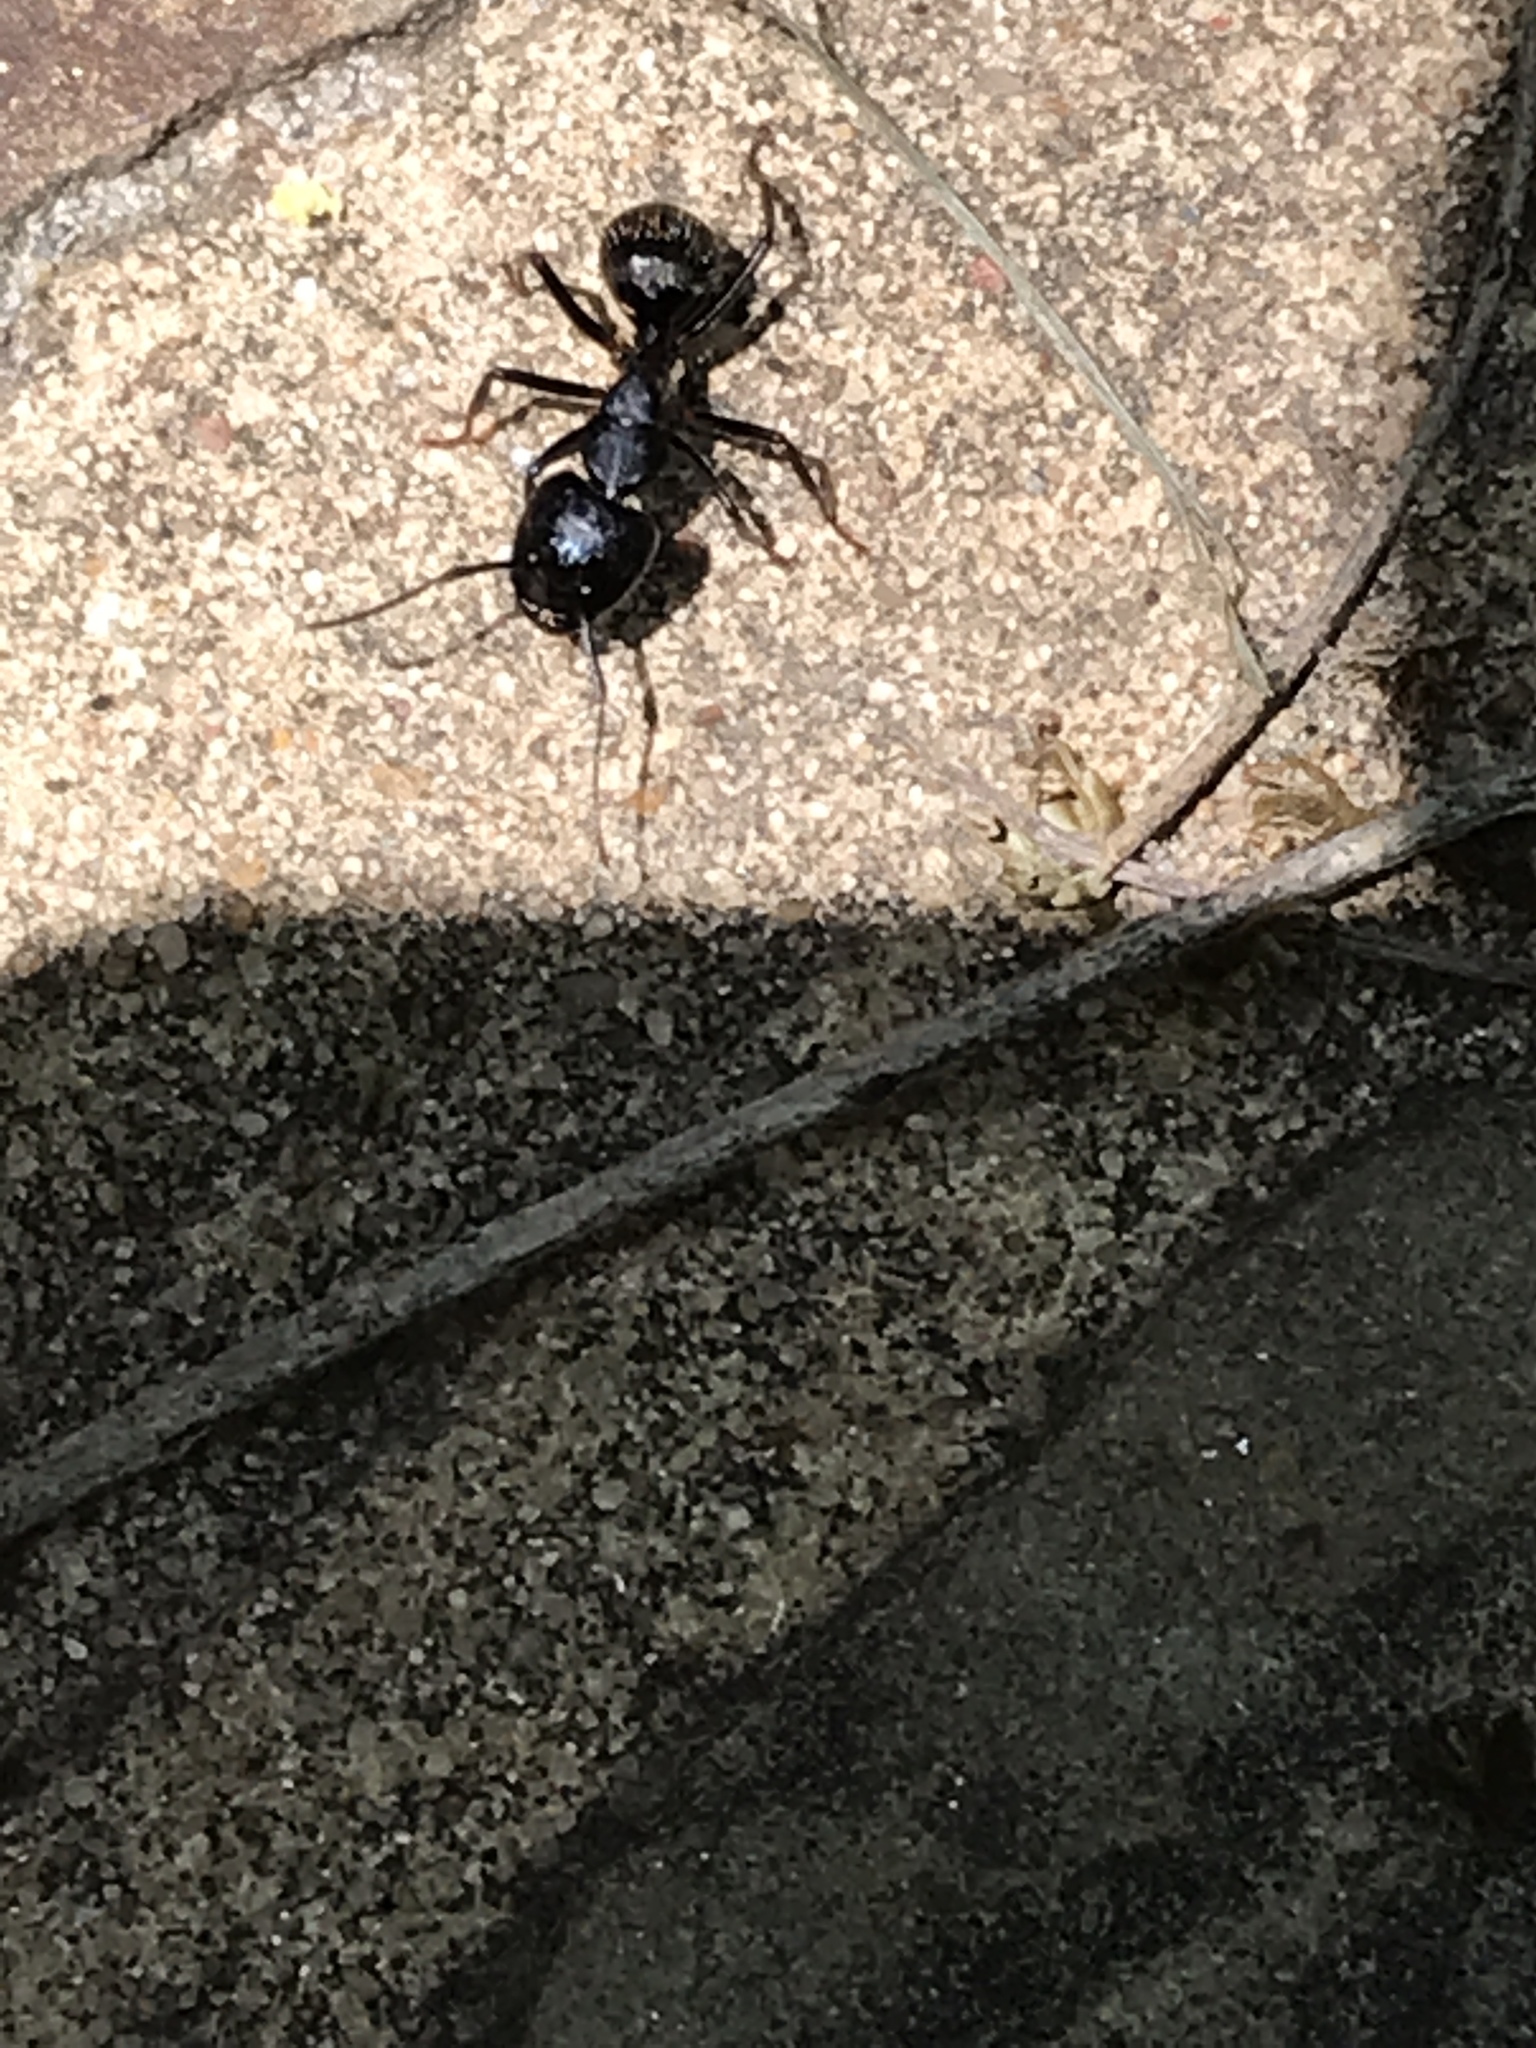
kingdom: Animalia
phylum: Arthropoda
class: Insecta
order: Hymenoptera
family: Formicidae
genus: Camponotus
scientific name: Camponotus pennsylvanicus
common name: Black carpenter ant
